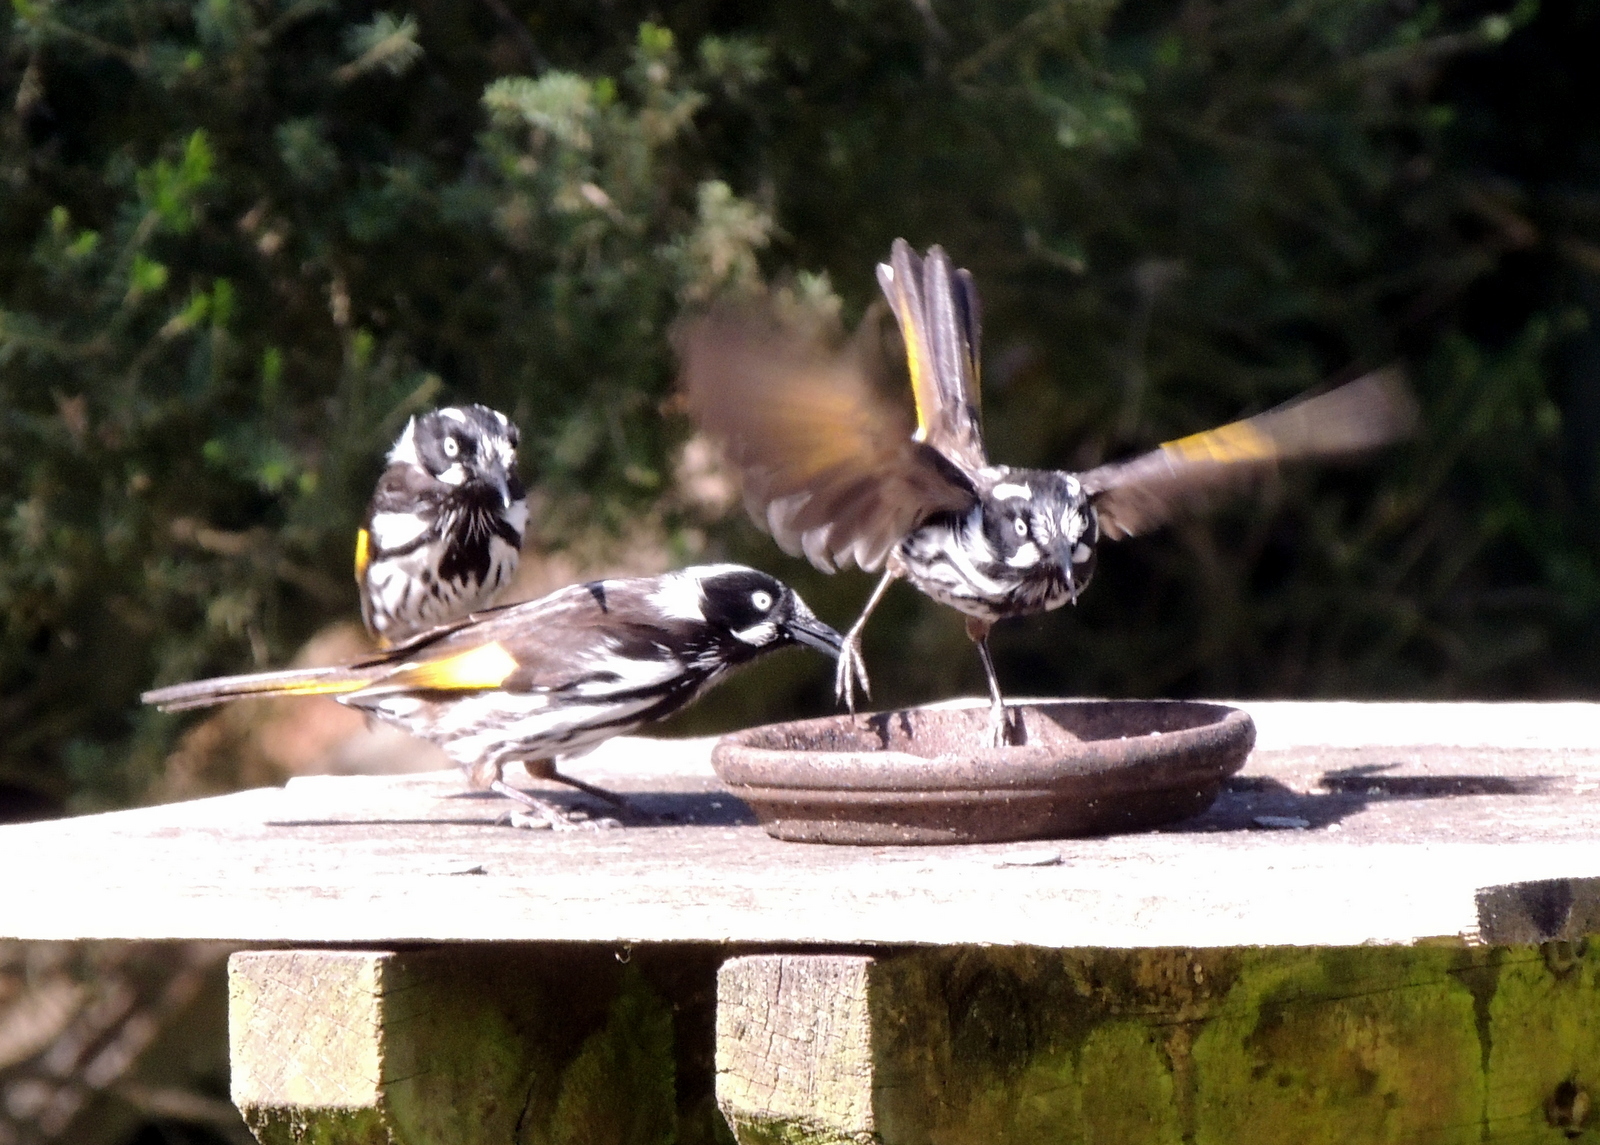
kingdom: Animalia
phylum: Chordata
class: Aves
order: Passeriformes
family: Meliphagidae
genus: Phylidonyris
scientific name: Phylidonyris novaehollandiae
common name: New holland honeyeater
